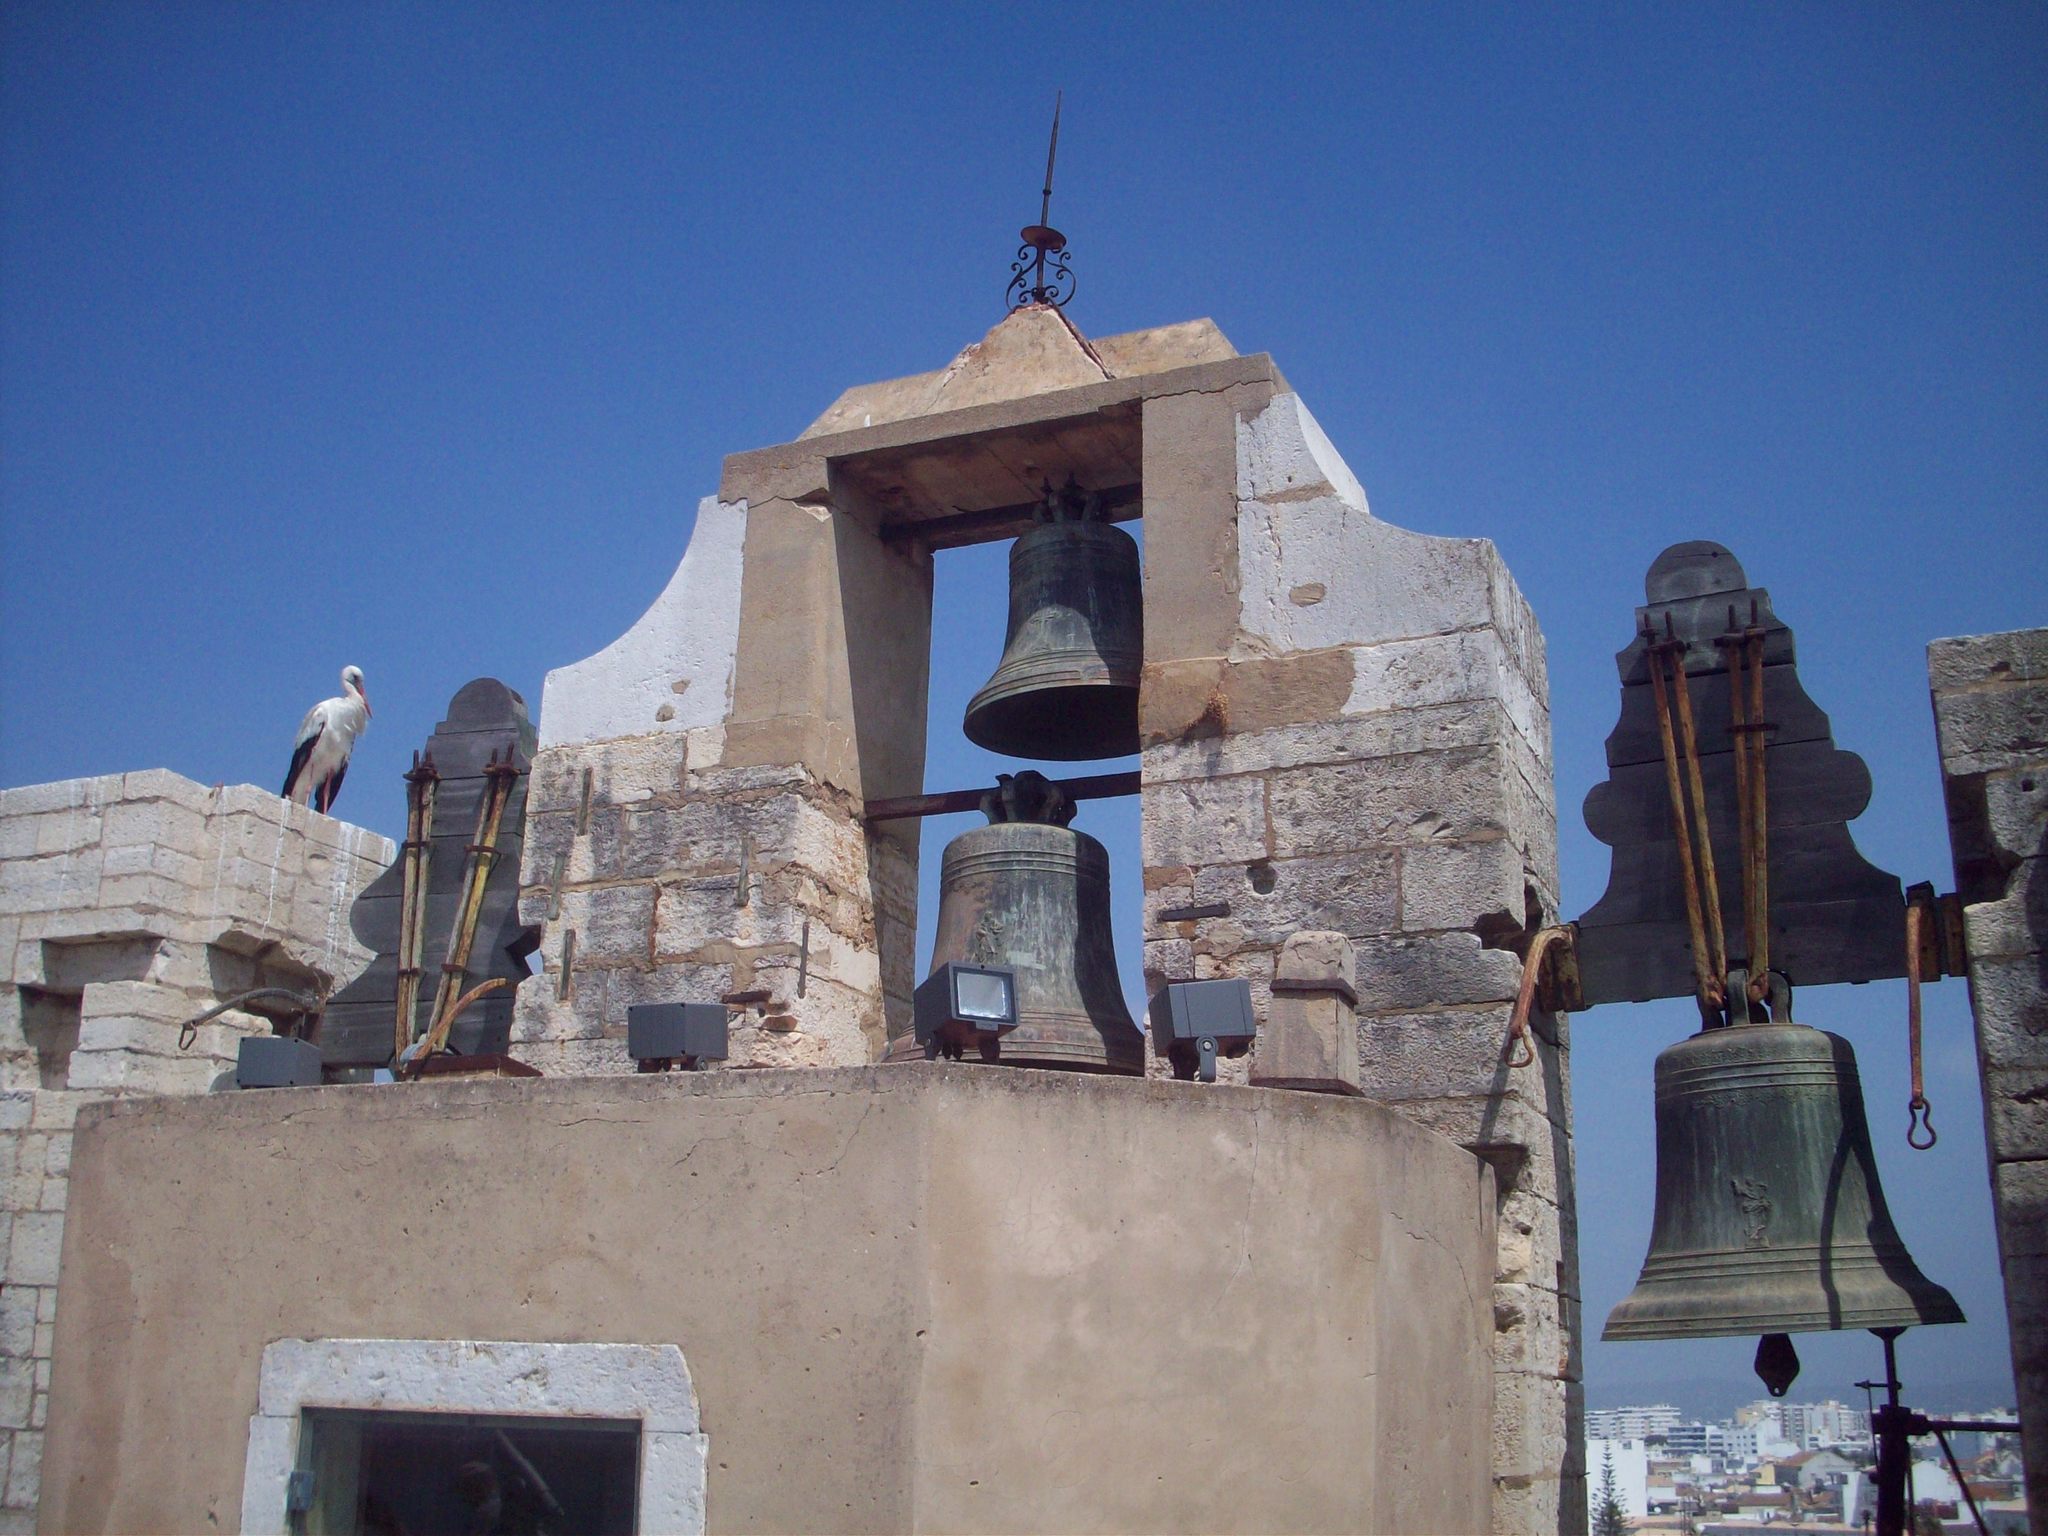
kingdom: Animalia
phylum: Chordata
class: Aves
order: Ciconiiformes
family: Ciconiidae
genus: Ciconia
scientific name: Ciconia ciconia
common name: White stork
